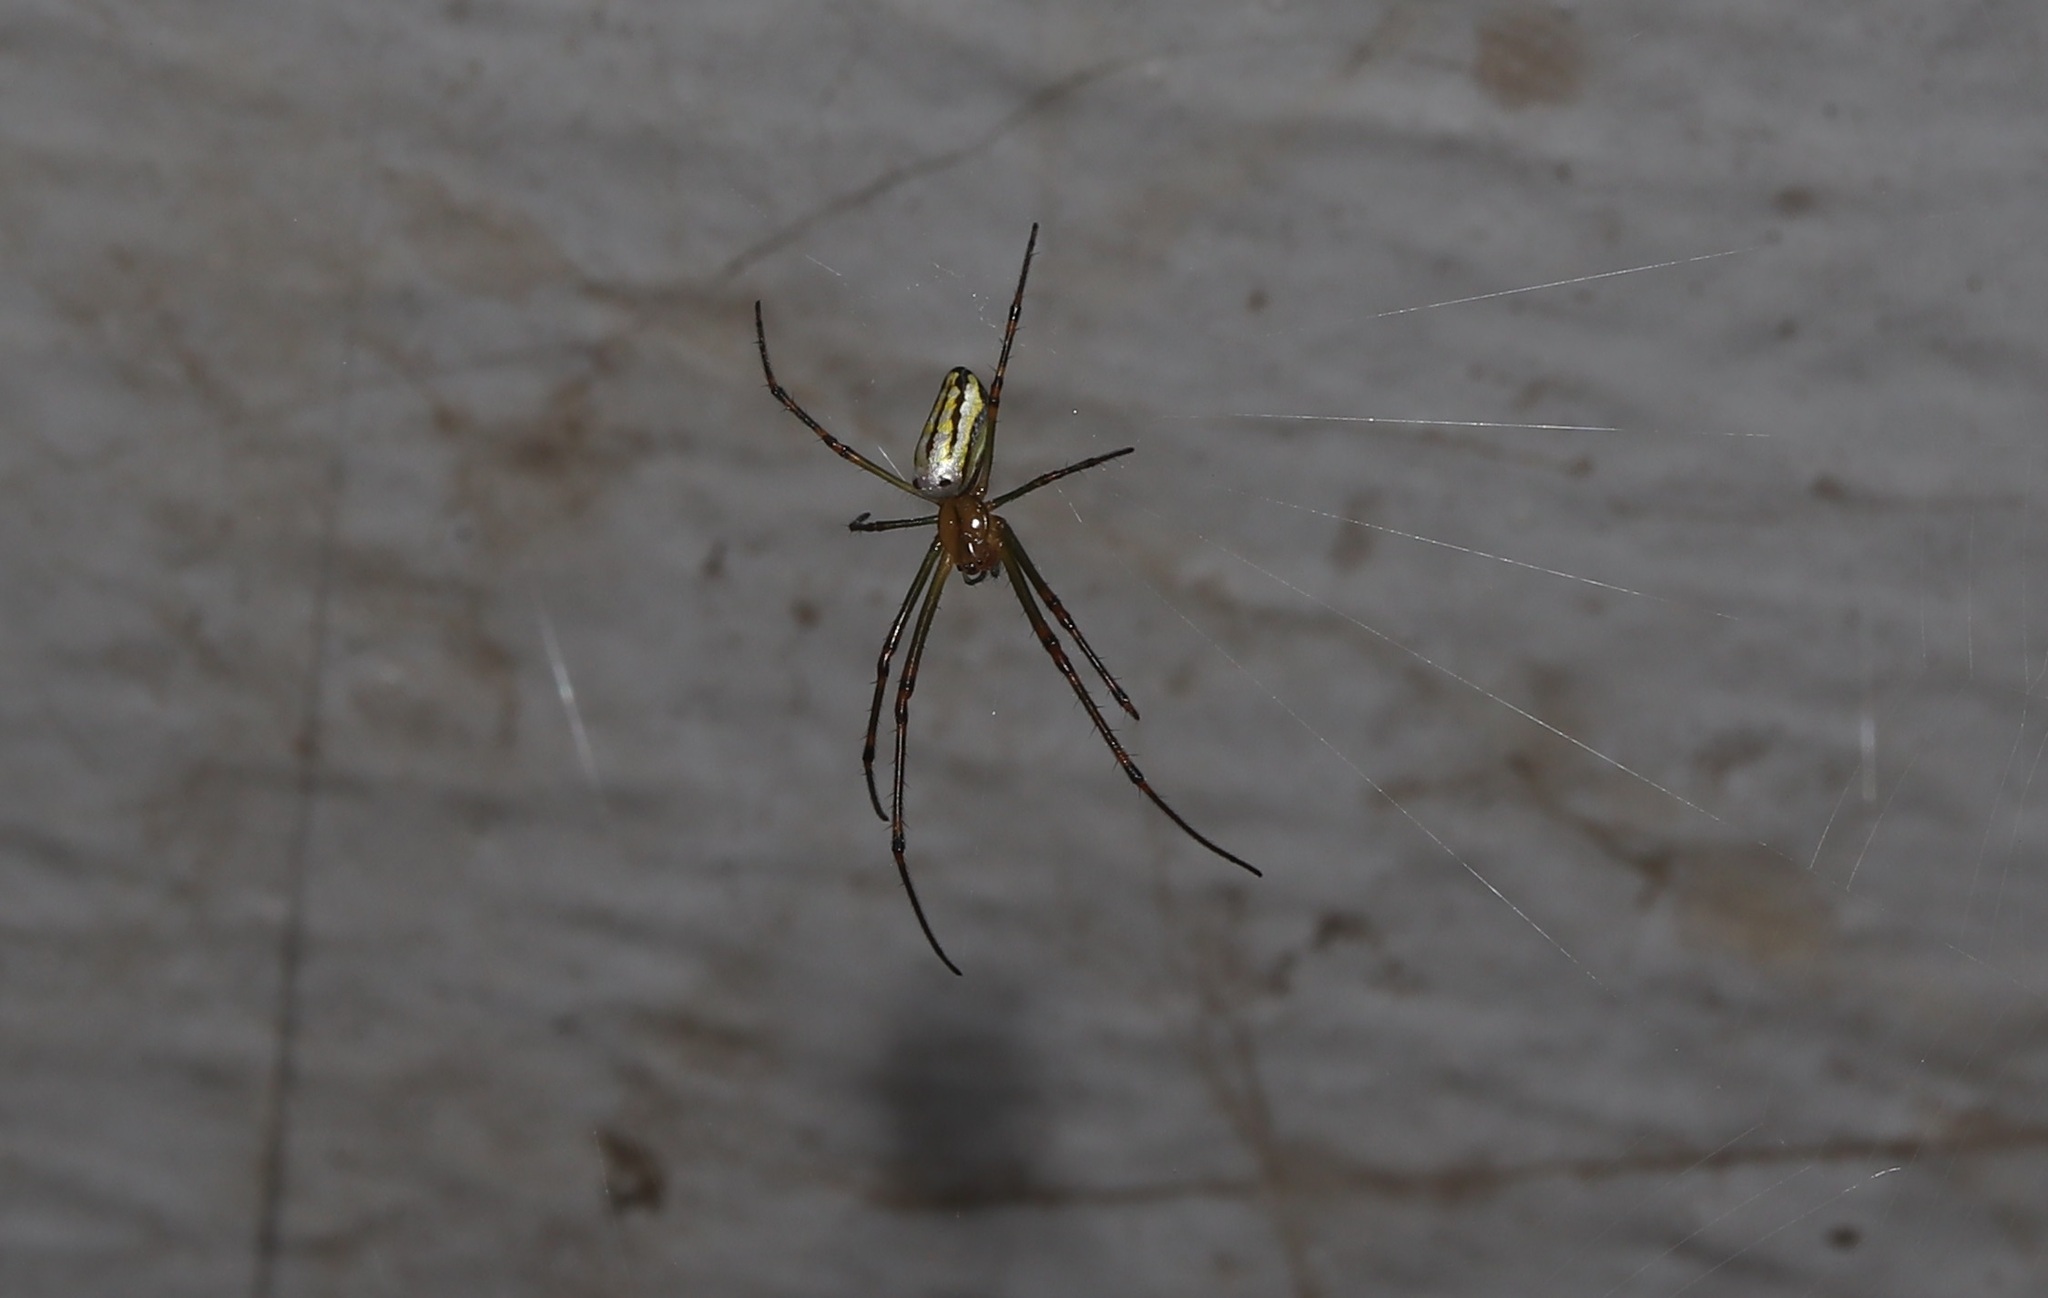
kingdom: Animalia
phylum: Arthropoda
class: Arachnida
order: Araneae
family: Tetragnathidae
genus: Leucauge
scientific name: Leucauge blanda
